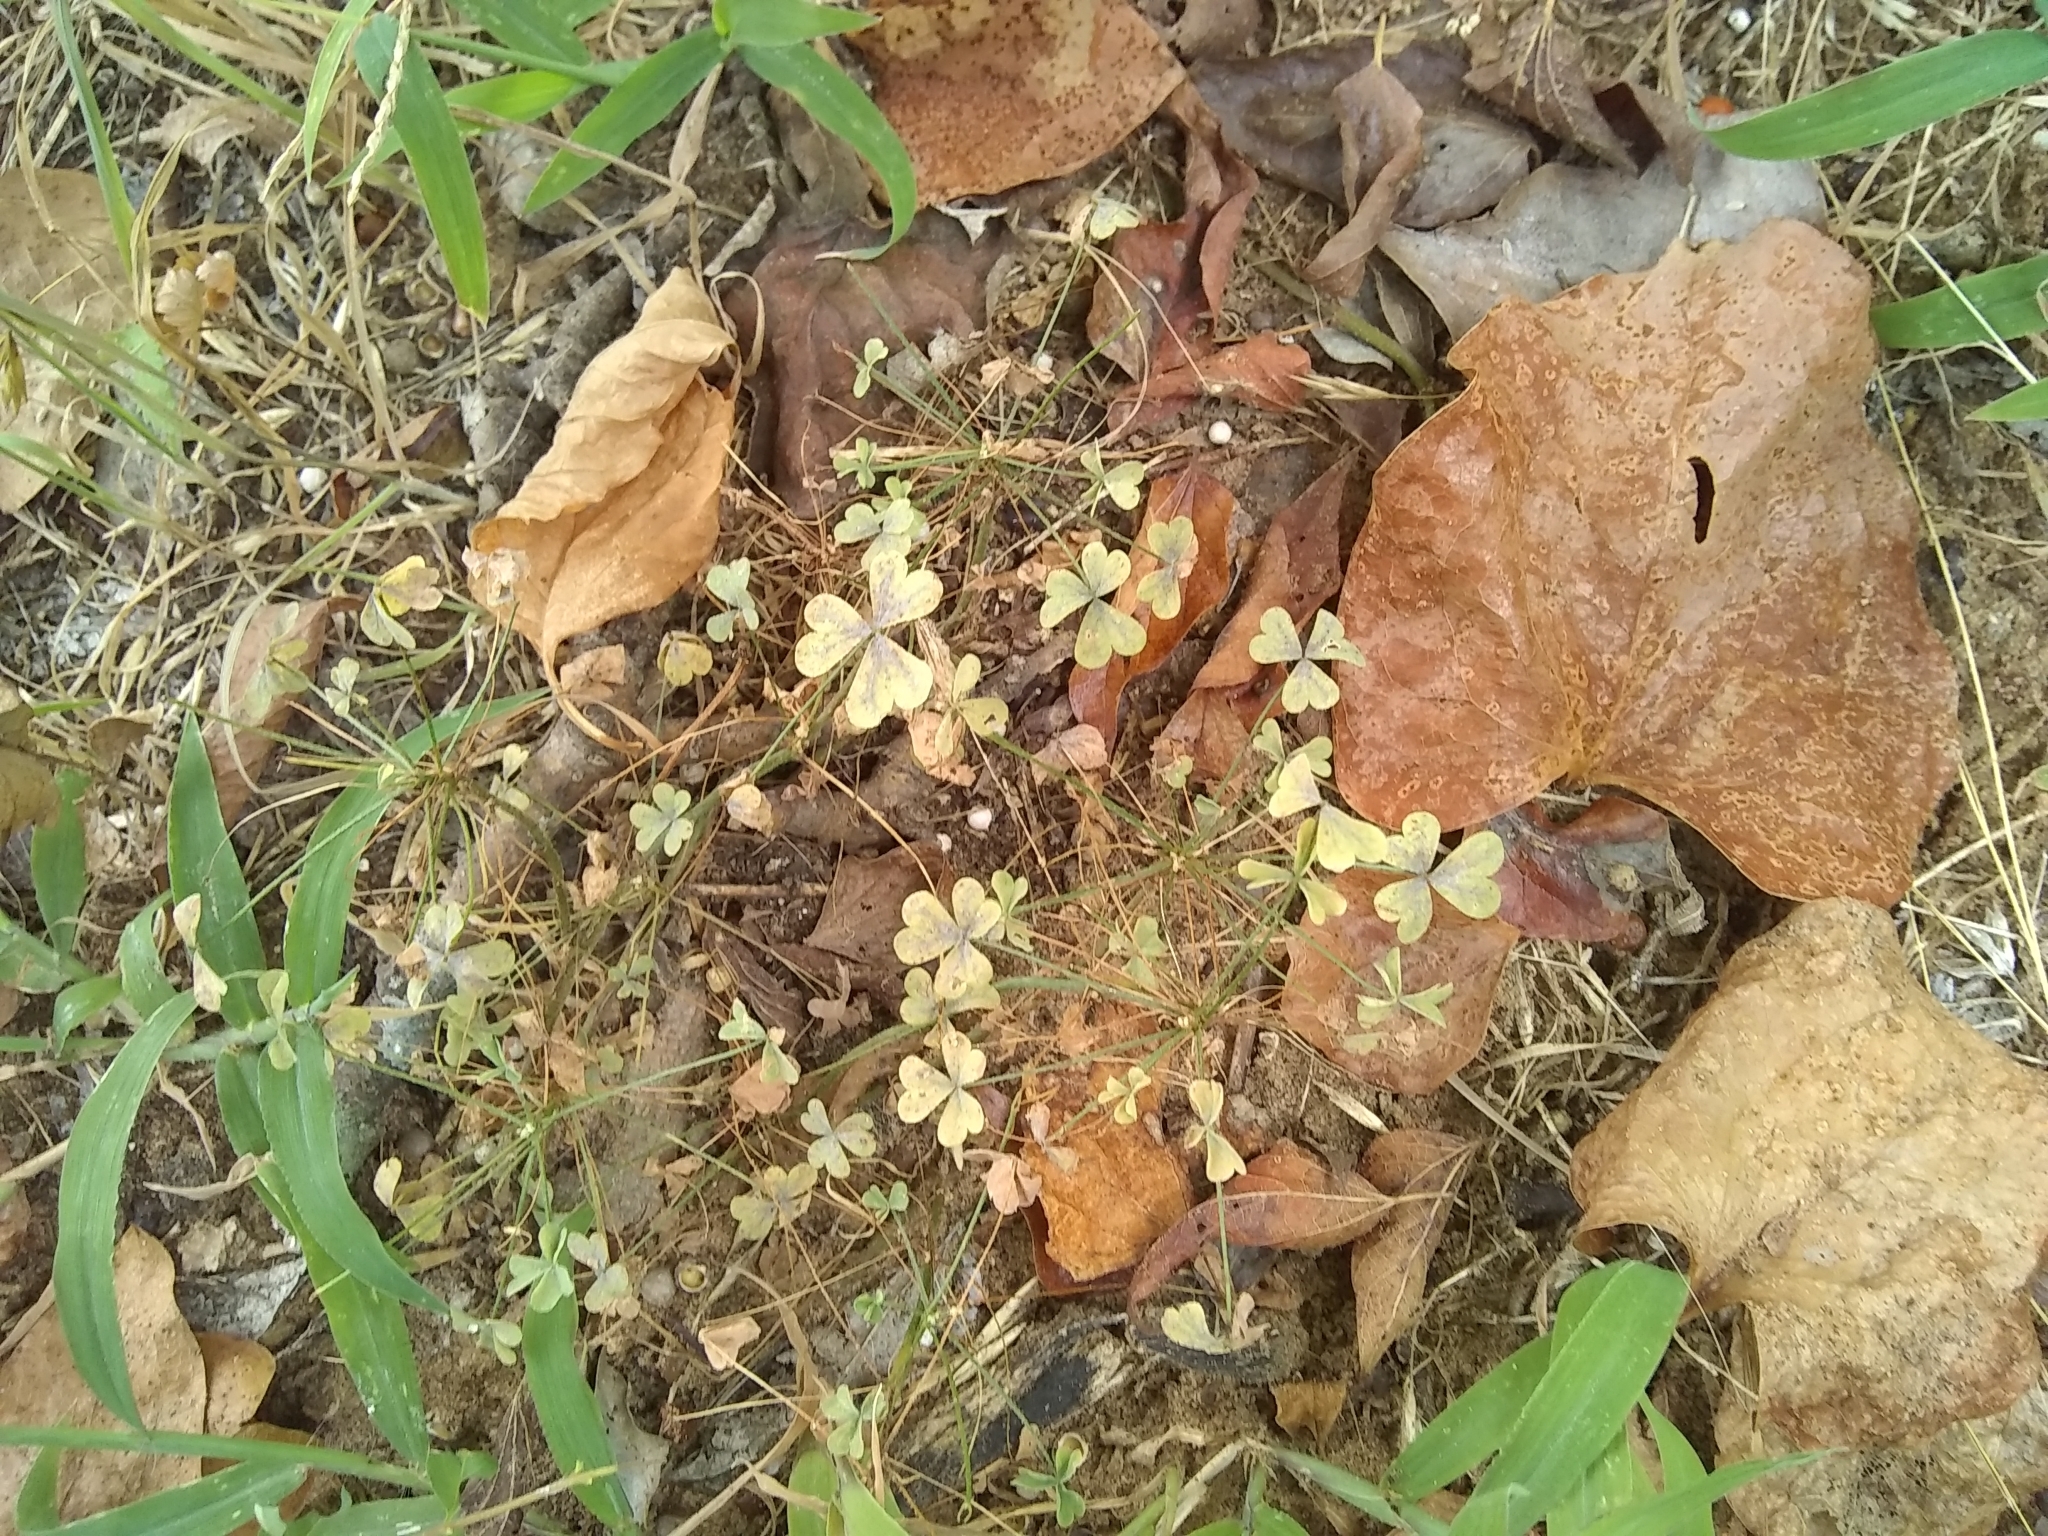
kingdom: Plantae
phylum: Tracheophyta
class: Magnoliopsida
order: Oxalidales
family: Oxalidaceae
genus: Oxalis
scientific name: Oxalis
